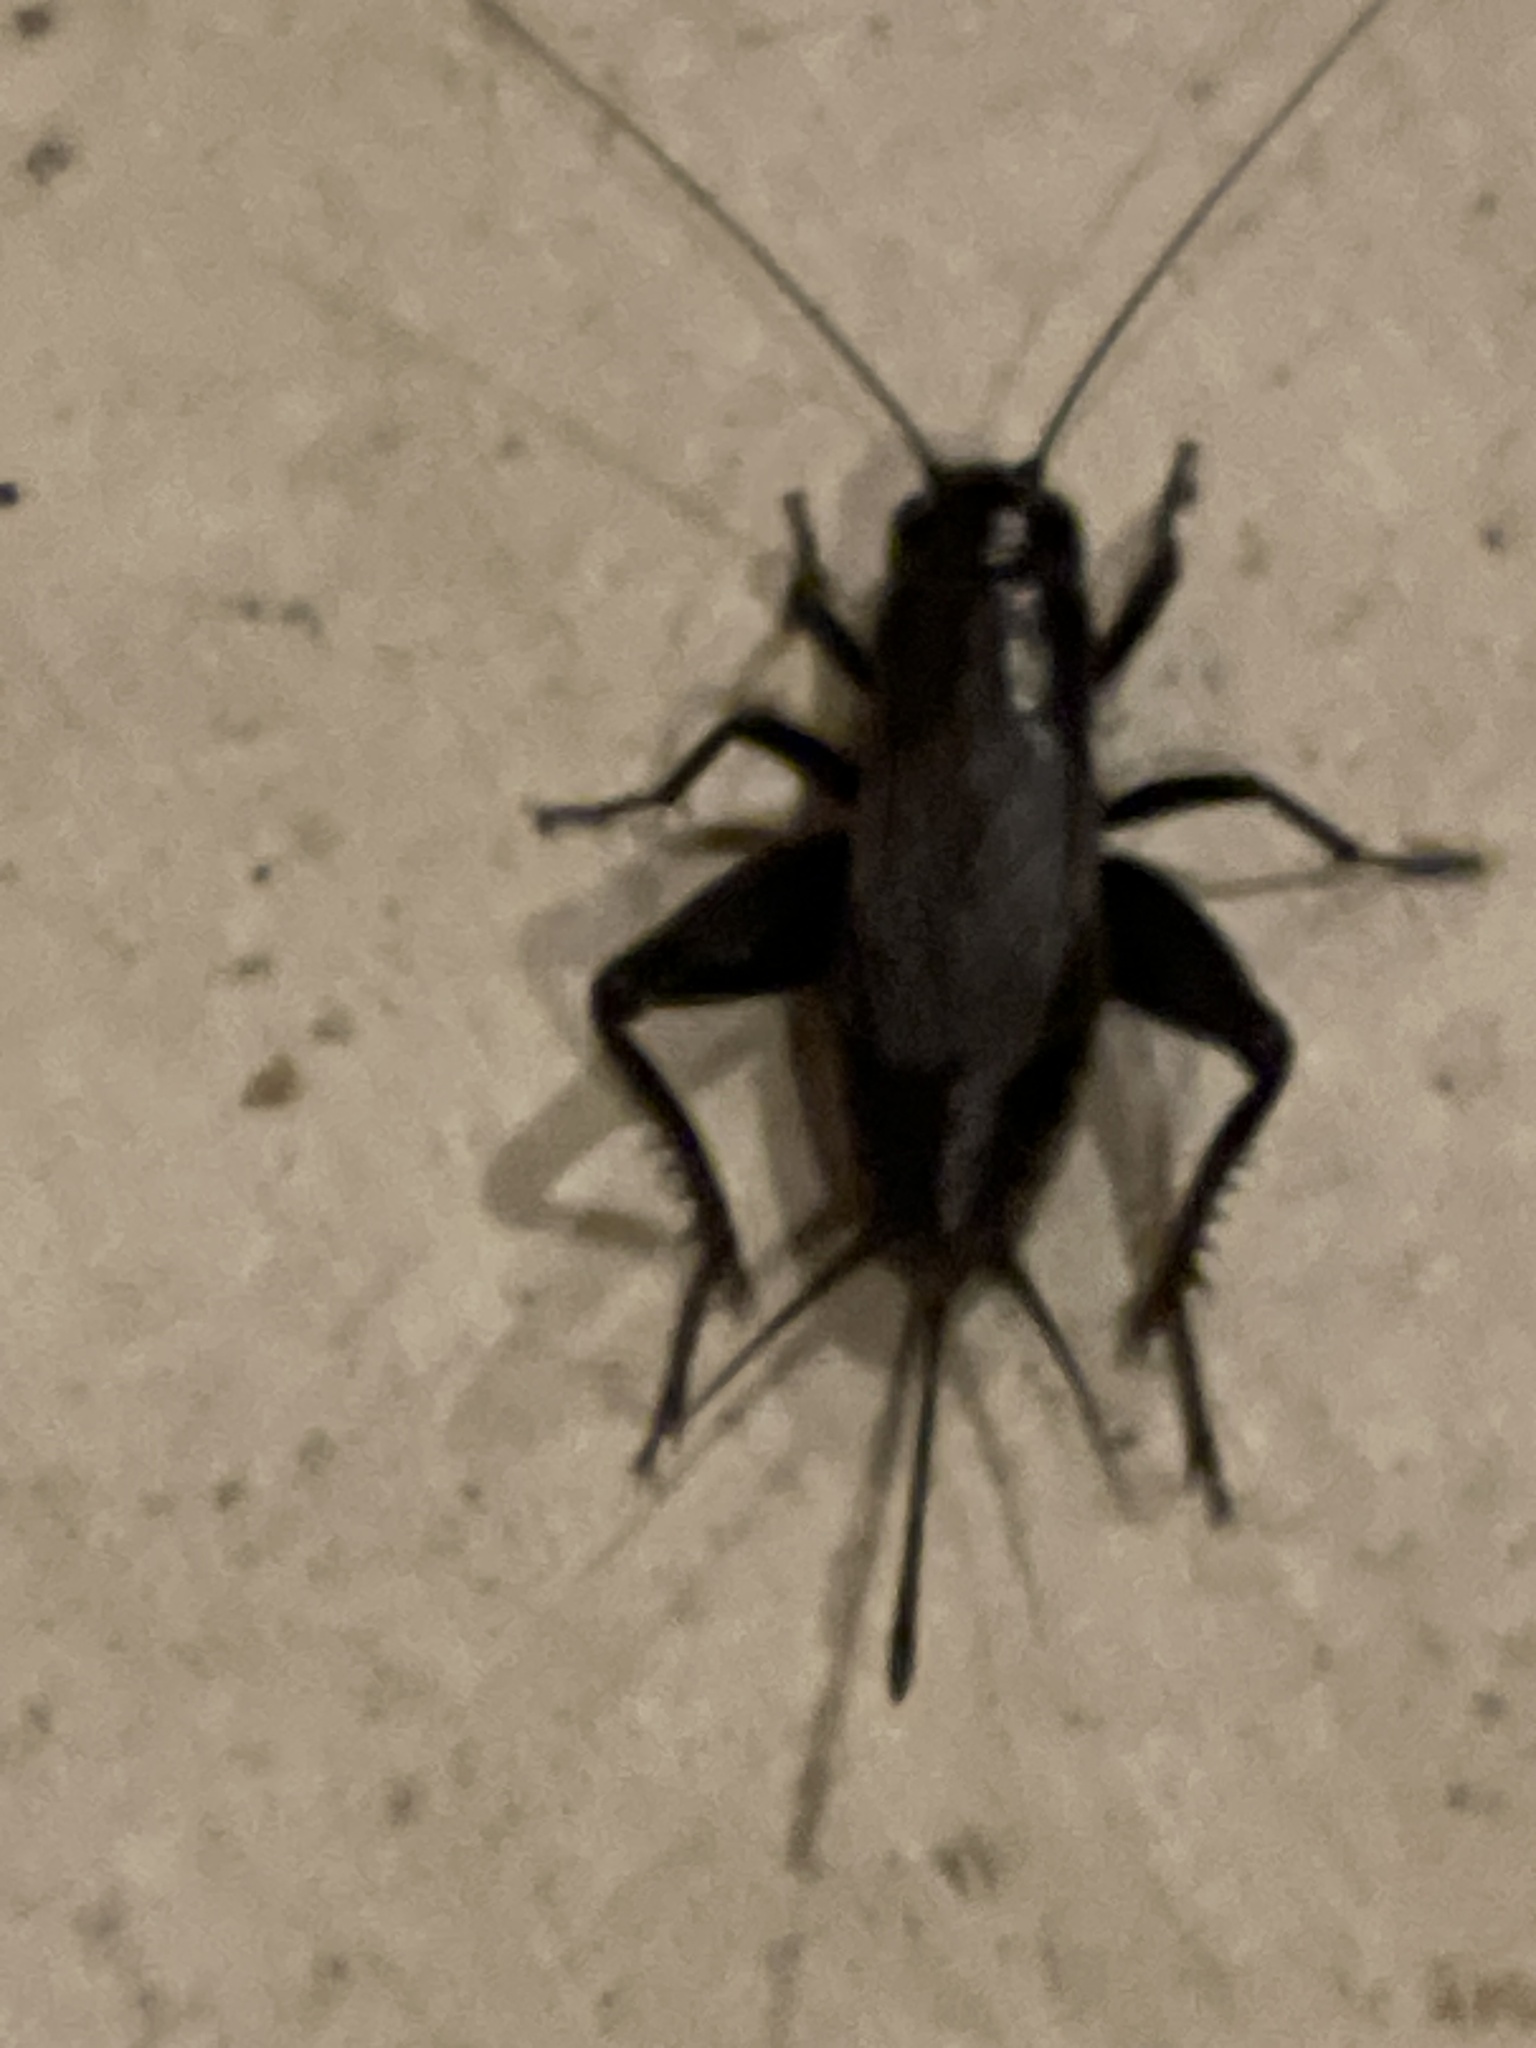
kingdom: Animalia
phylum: Arthropoda
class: Insecta
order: Orthoptera
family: Gryllidae
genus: Gryllus
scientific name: Gryllus pennsylvanicus
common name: Fall field cricket
